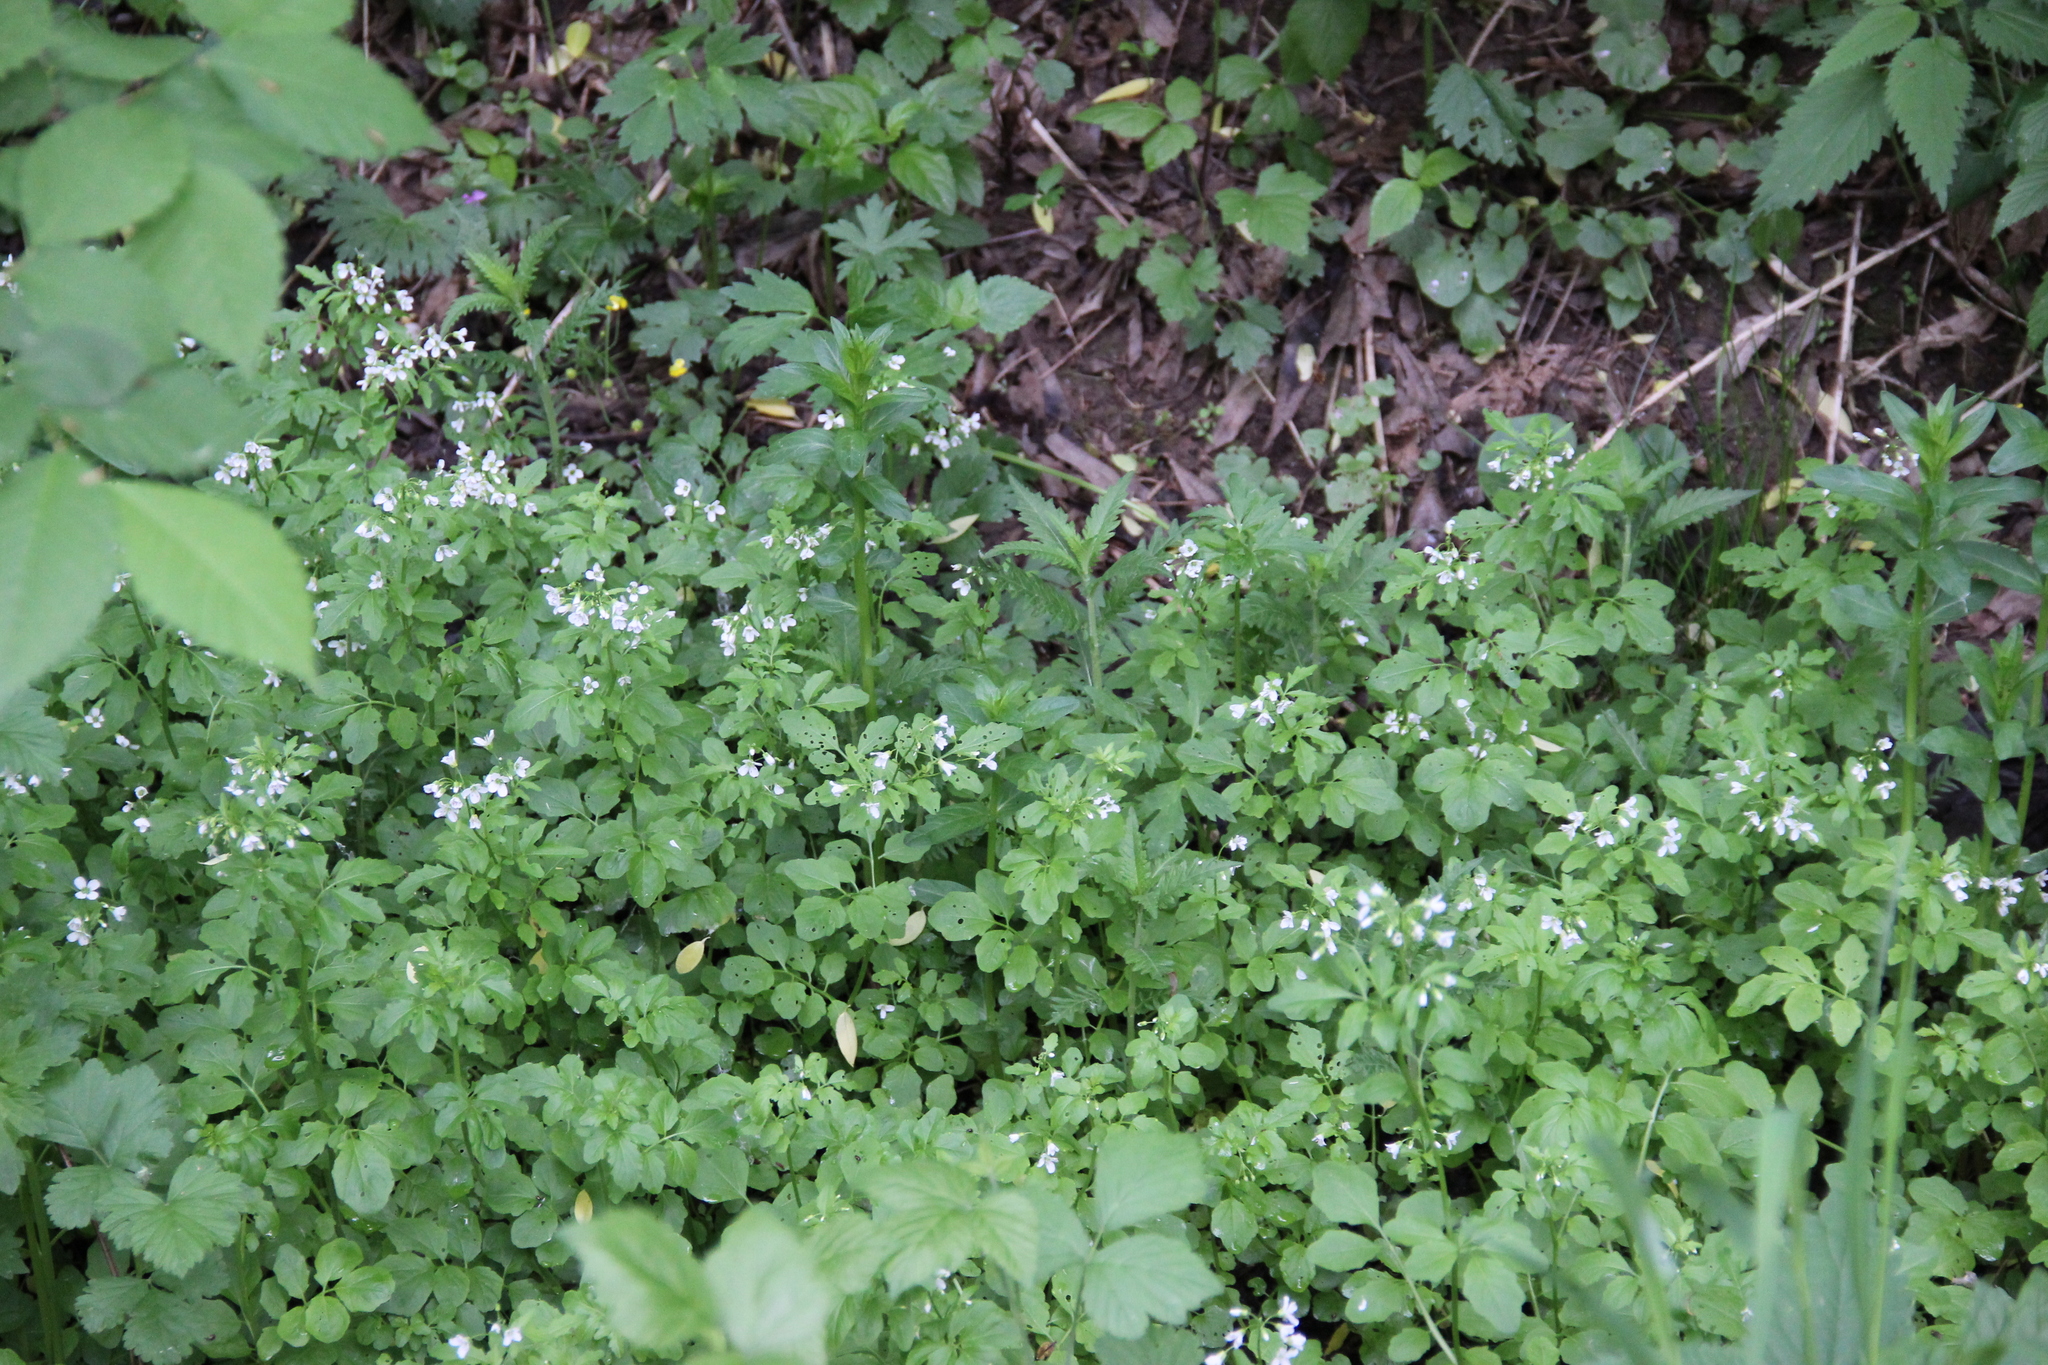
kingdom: Plantae
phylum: Tracheophyta
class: Magnoliopsida
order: Brassicales
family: Brassicaceae
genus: Cardamine
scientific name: Cardamine amara
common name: Large bitter-cress
